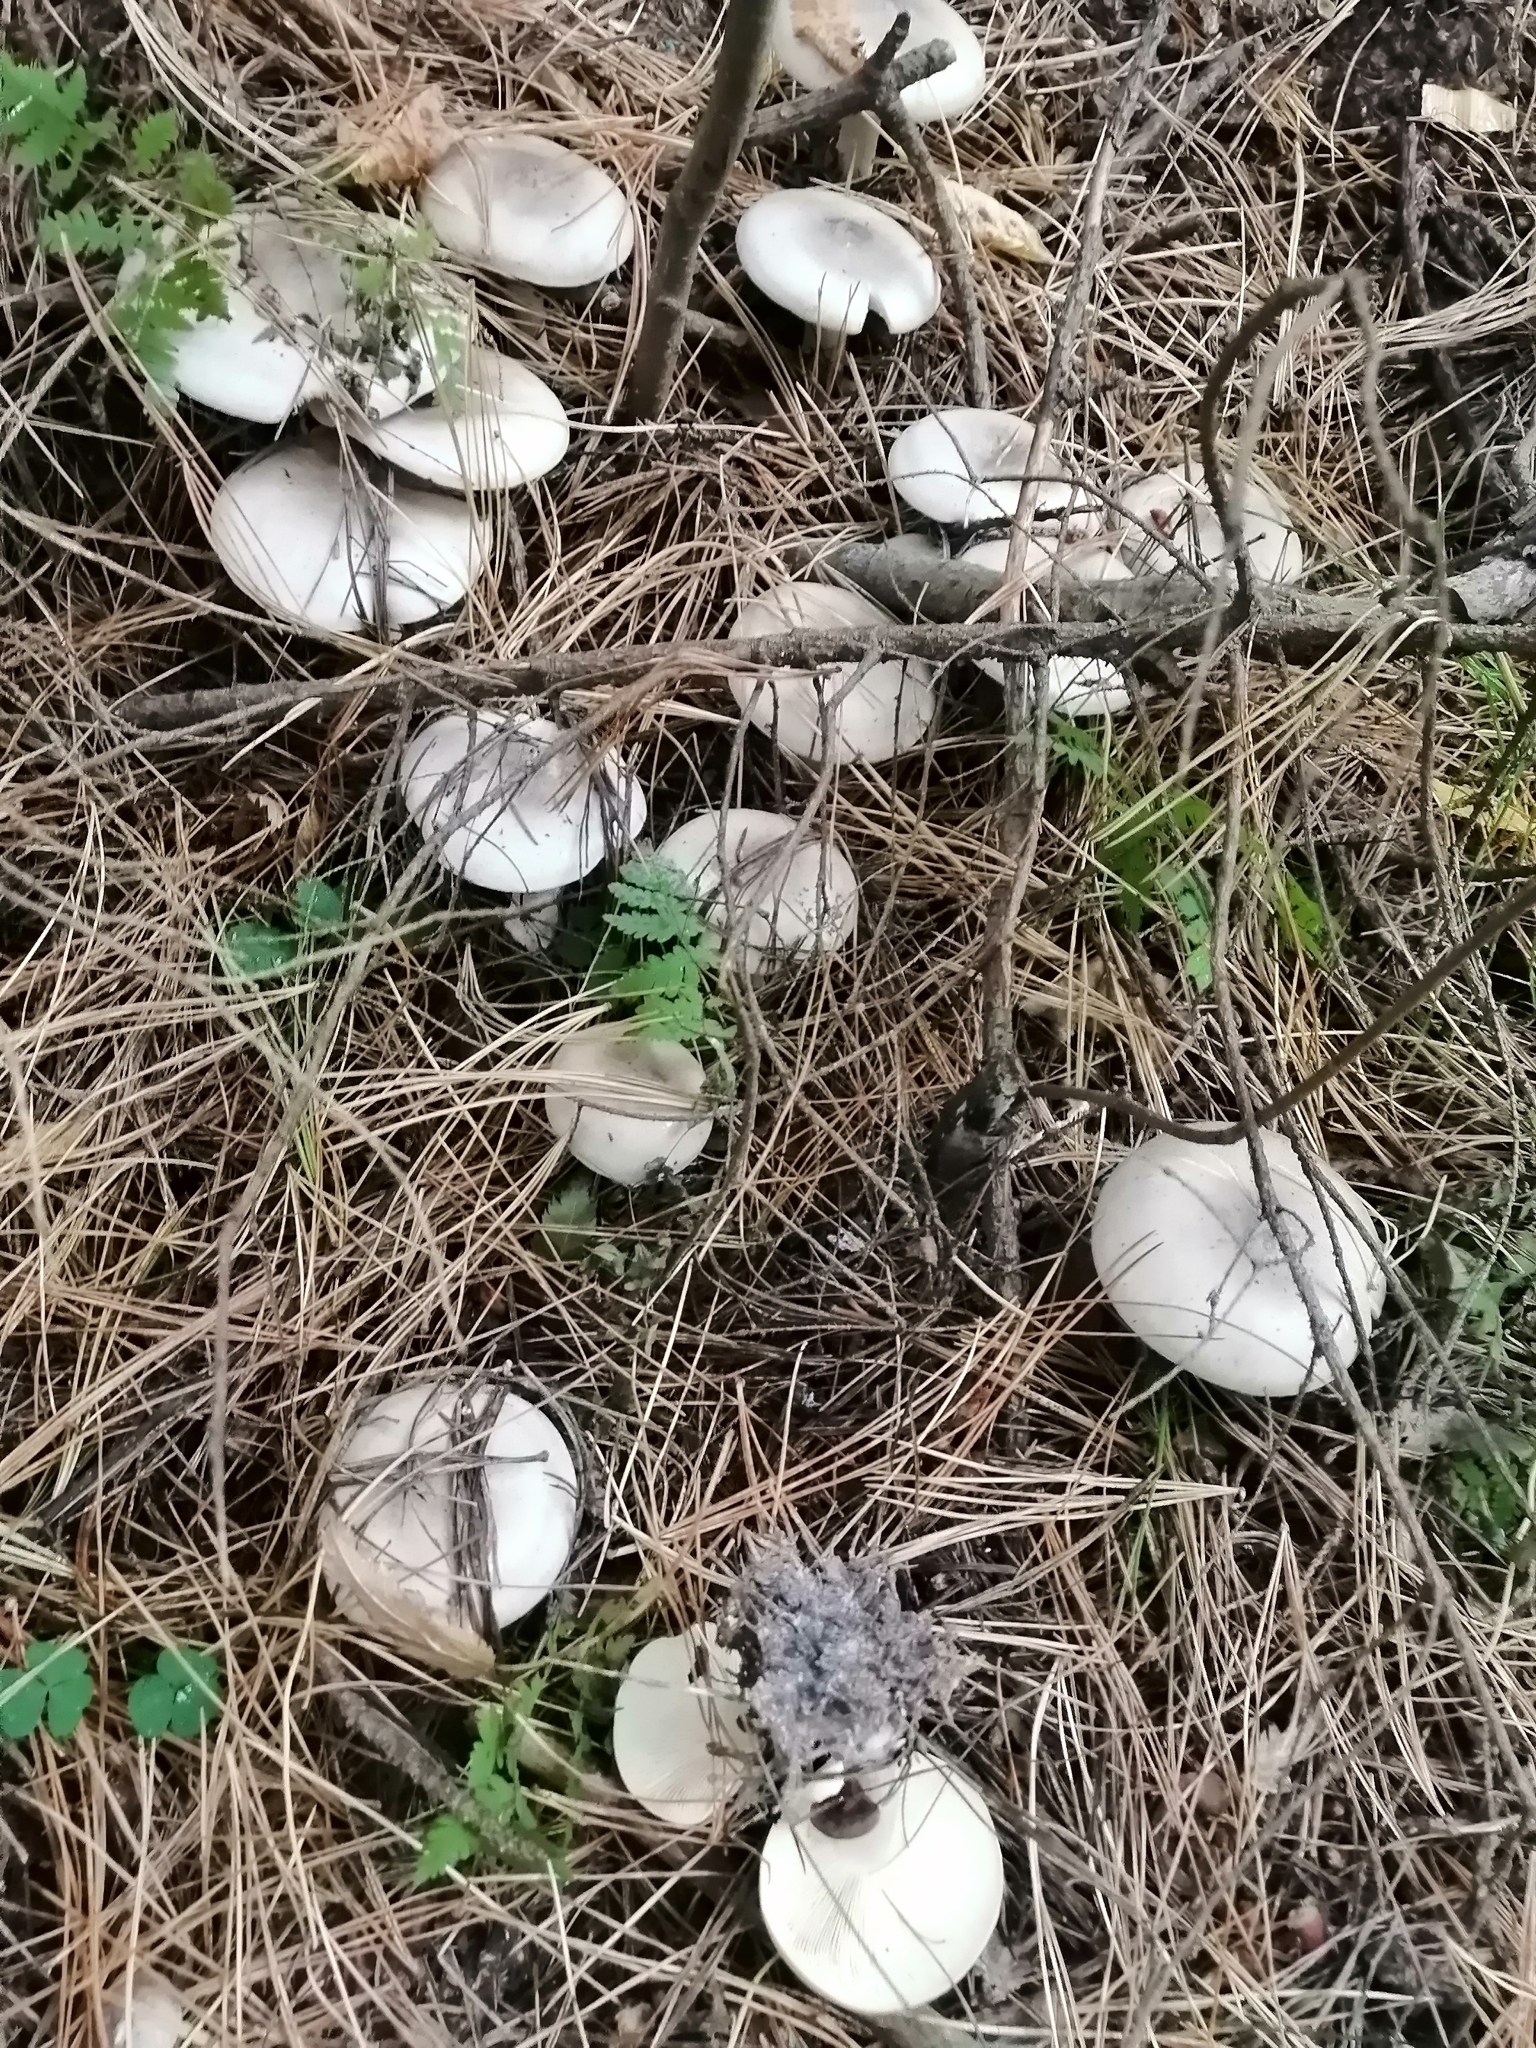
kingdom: Fungi
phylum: Basidiomycota
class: Agaricomycetes
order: Agaricales
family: Tricholomataceae
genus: Clitocybe
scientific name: Clitocybe nebularis
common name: Clouded agaric
